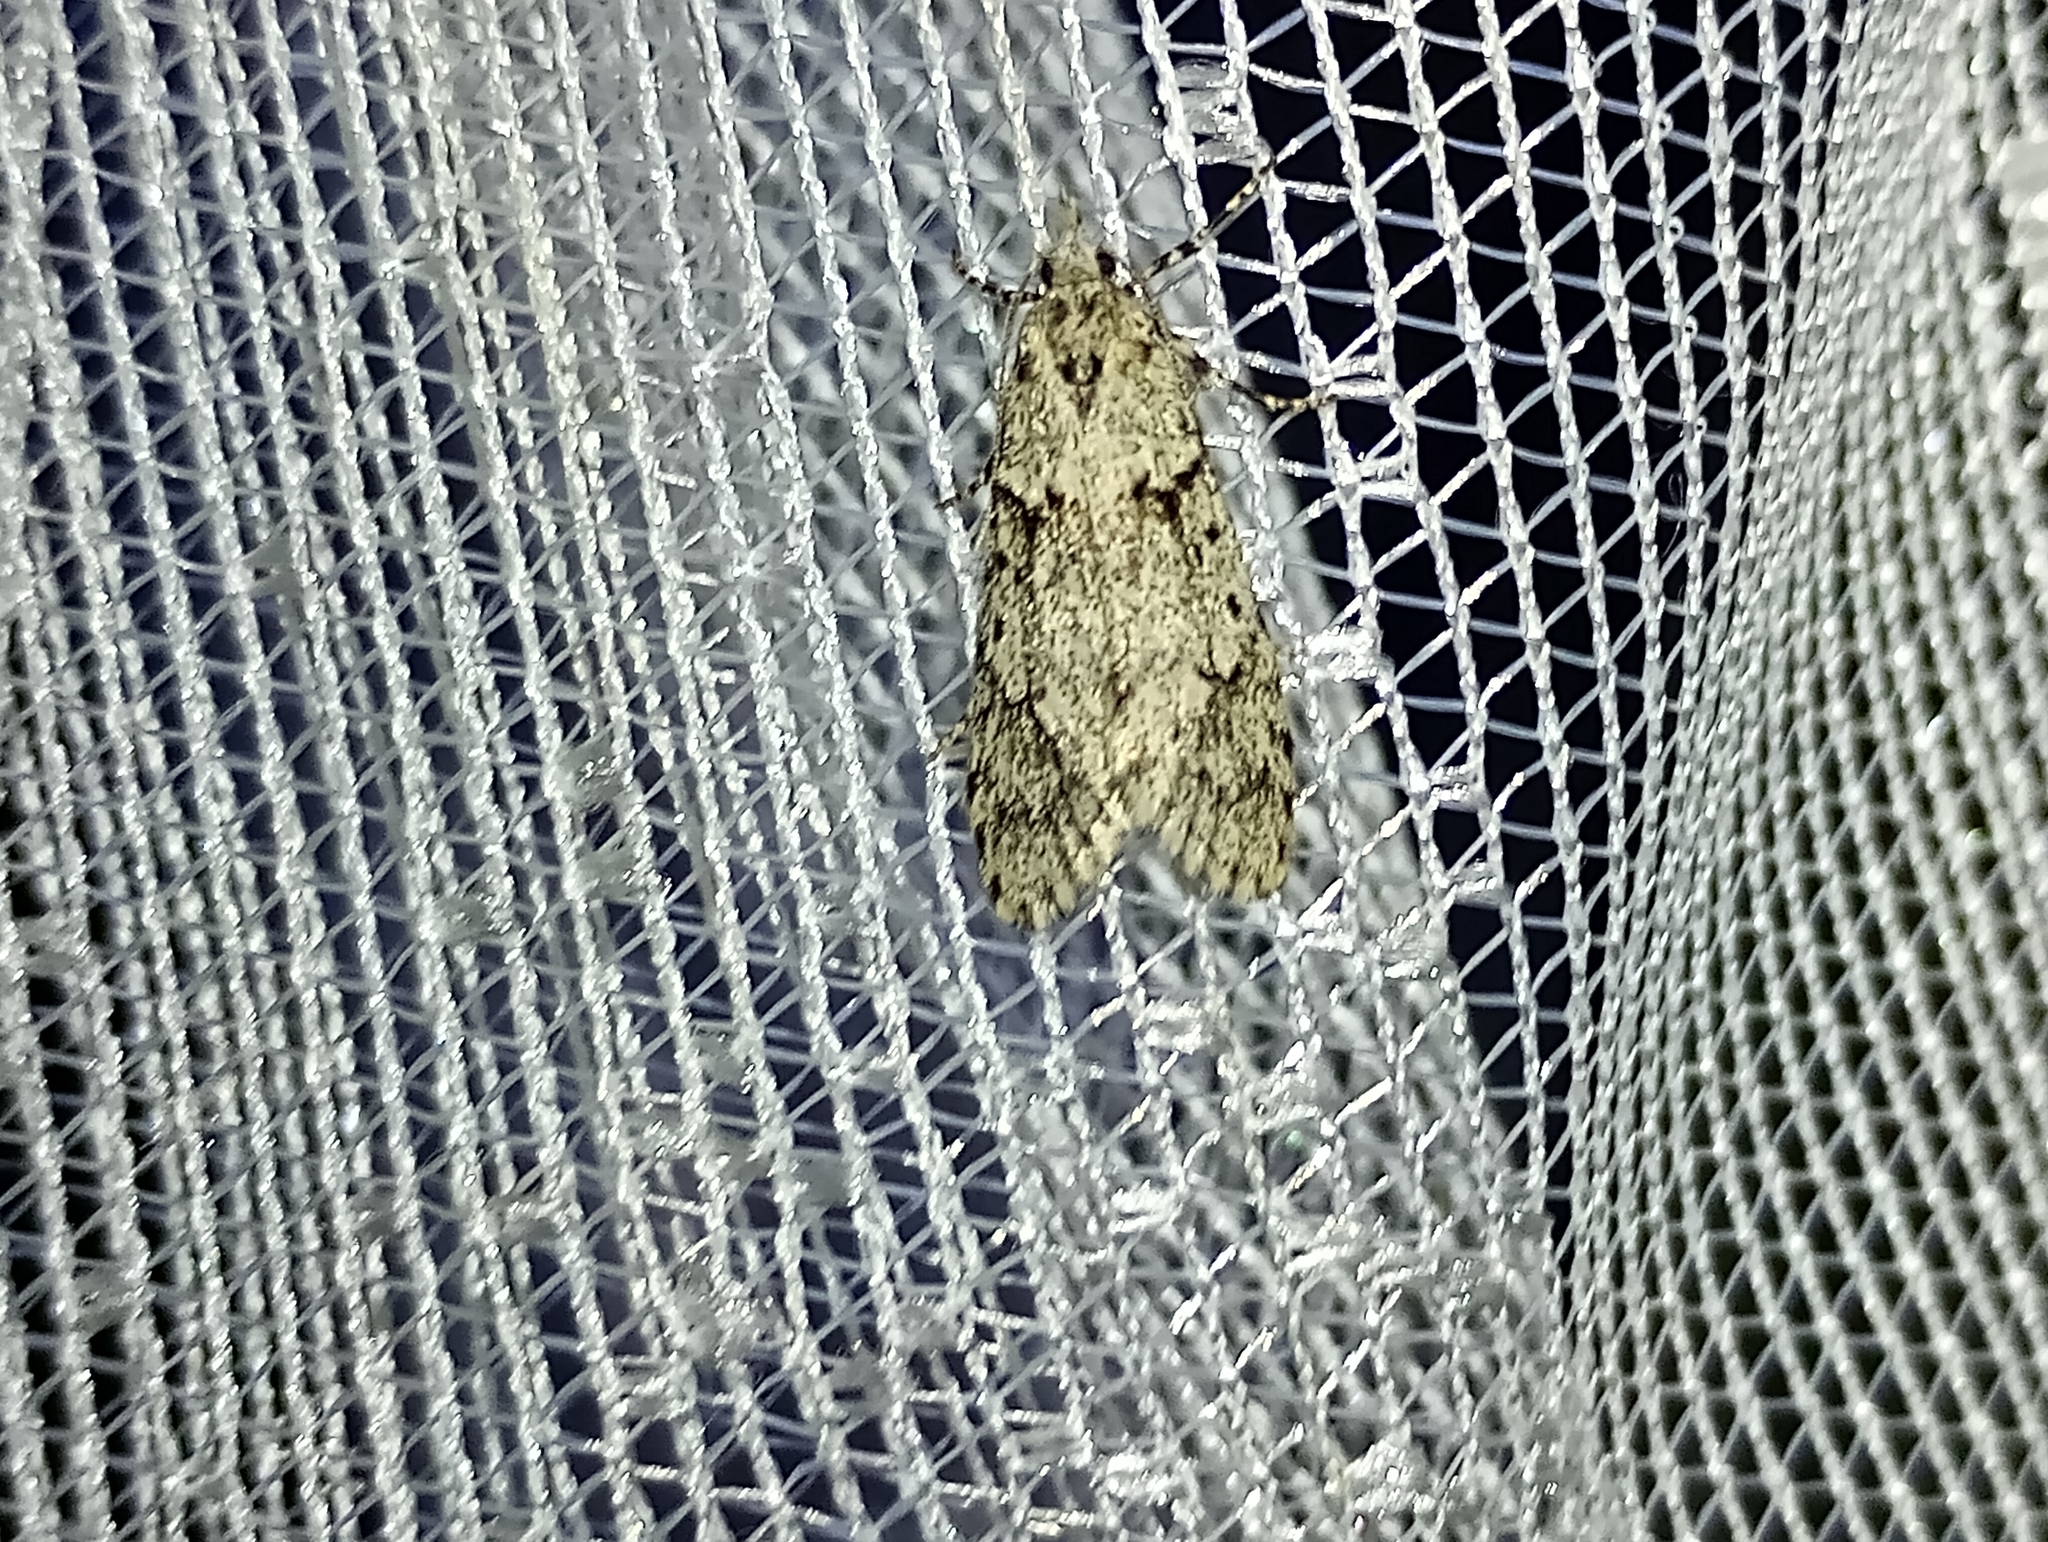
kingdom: Animalia
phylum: Arthropoda
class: Insecta
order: Lepidoptera
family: Lypusidae
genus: Diurnea
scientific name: Diurnea fagella
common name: March tubic
